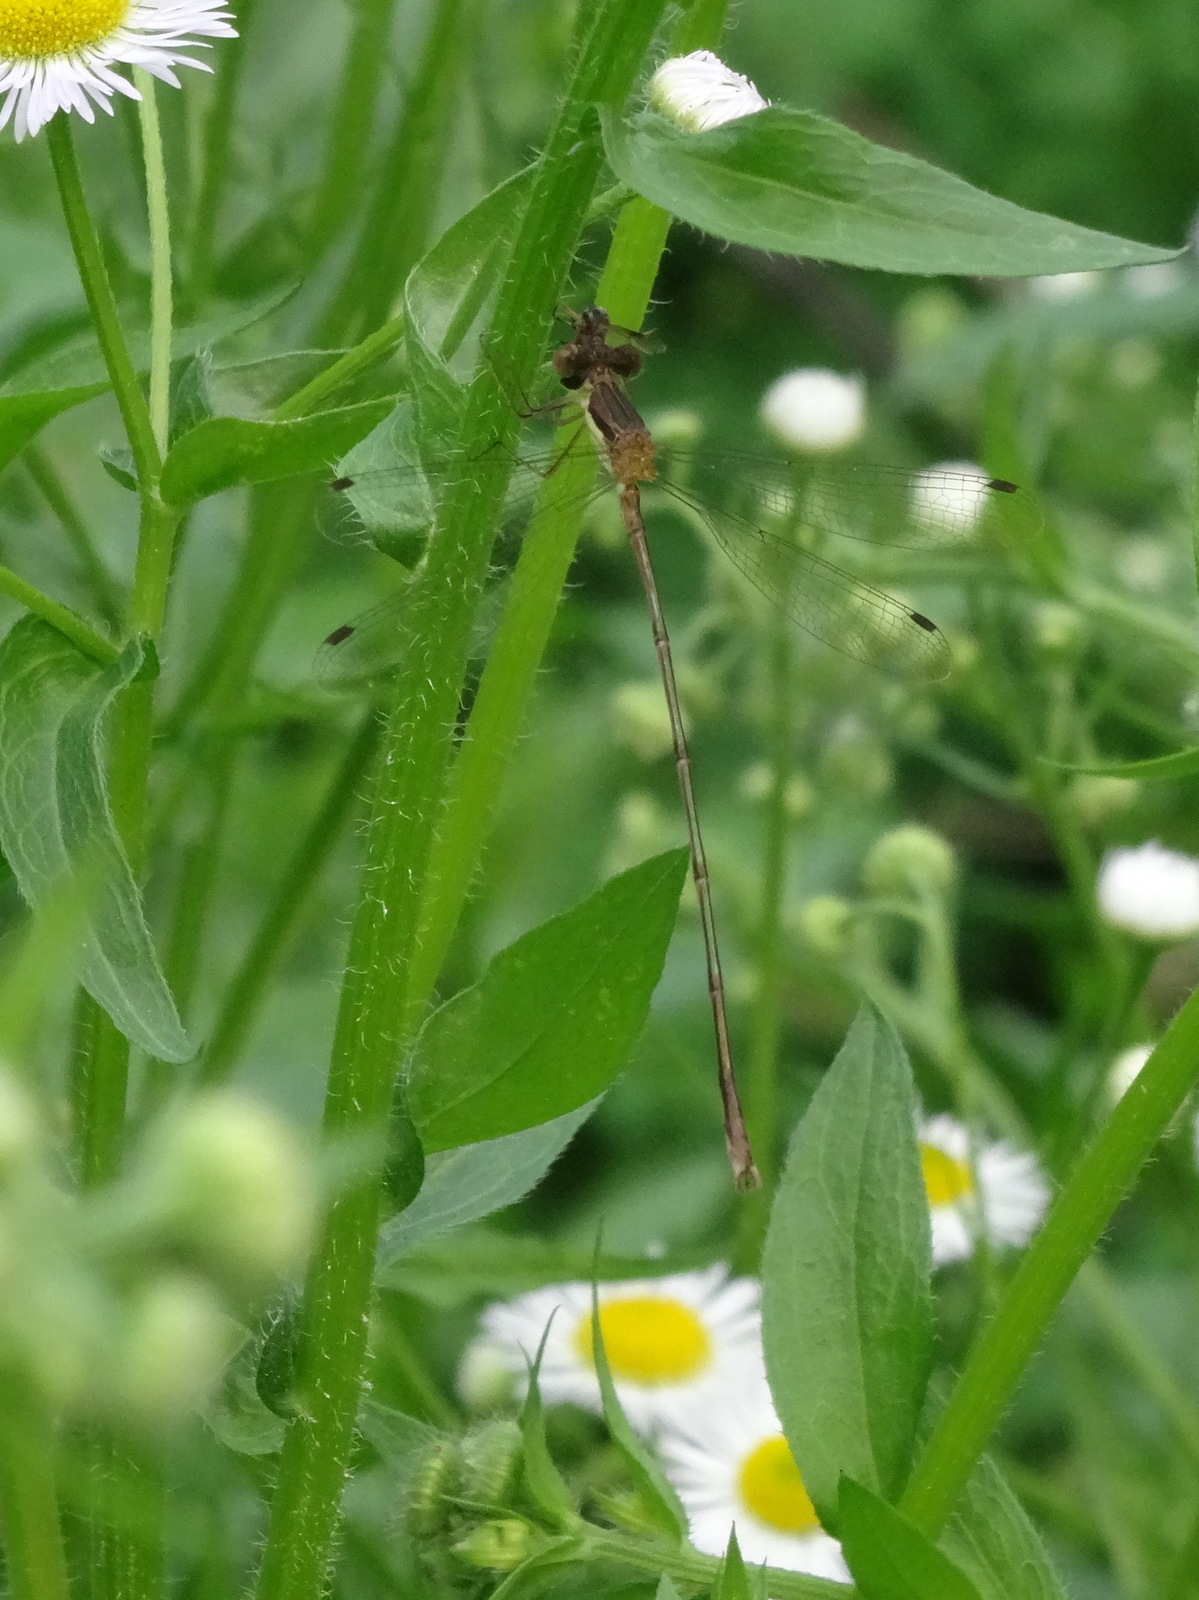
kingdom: Animalia
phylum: Arthropoda
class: Insecta
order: Odonata
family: Lestidae
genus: Lestes
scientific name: Lestes rectangularis
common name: Slender spreadwing
